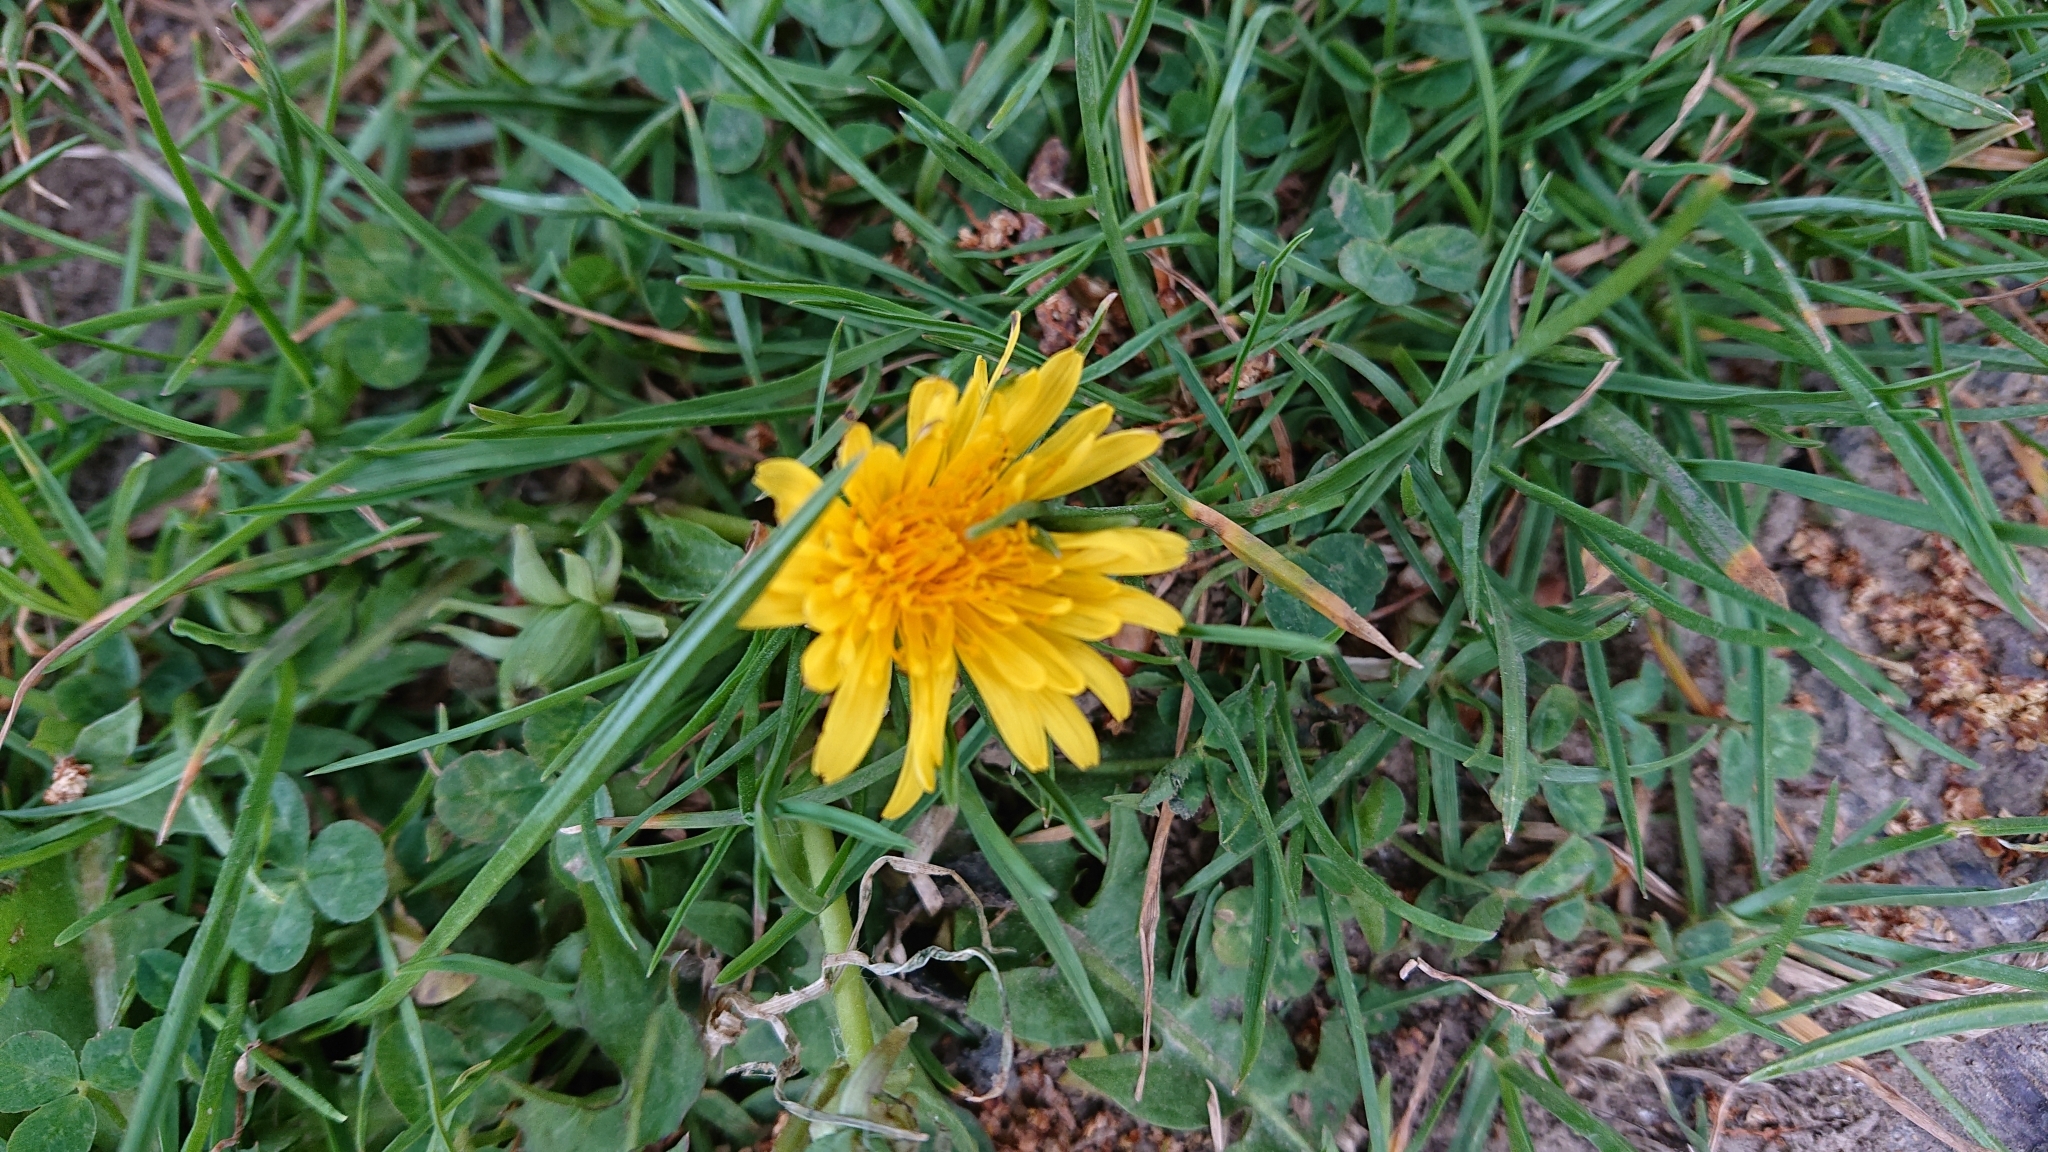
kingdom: Plantae
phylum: Tracheophyta
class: Magnoliopsida
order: Asterales
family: Asteraceae
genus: Taraxacum
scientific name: Taraxacum officinale
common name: Common dandelion
